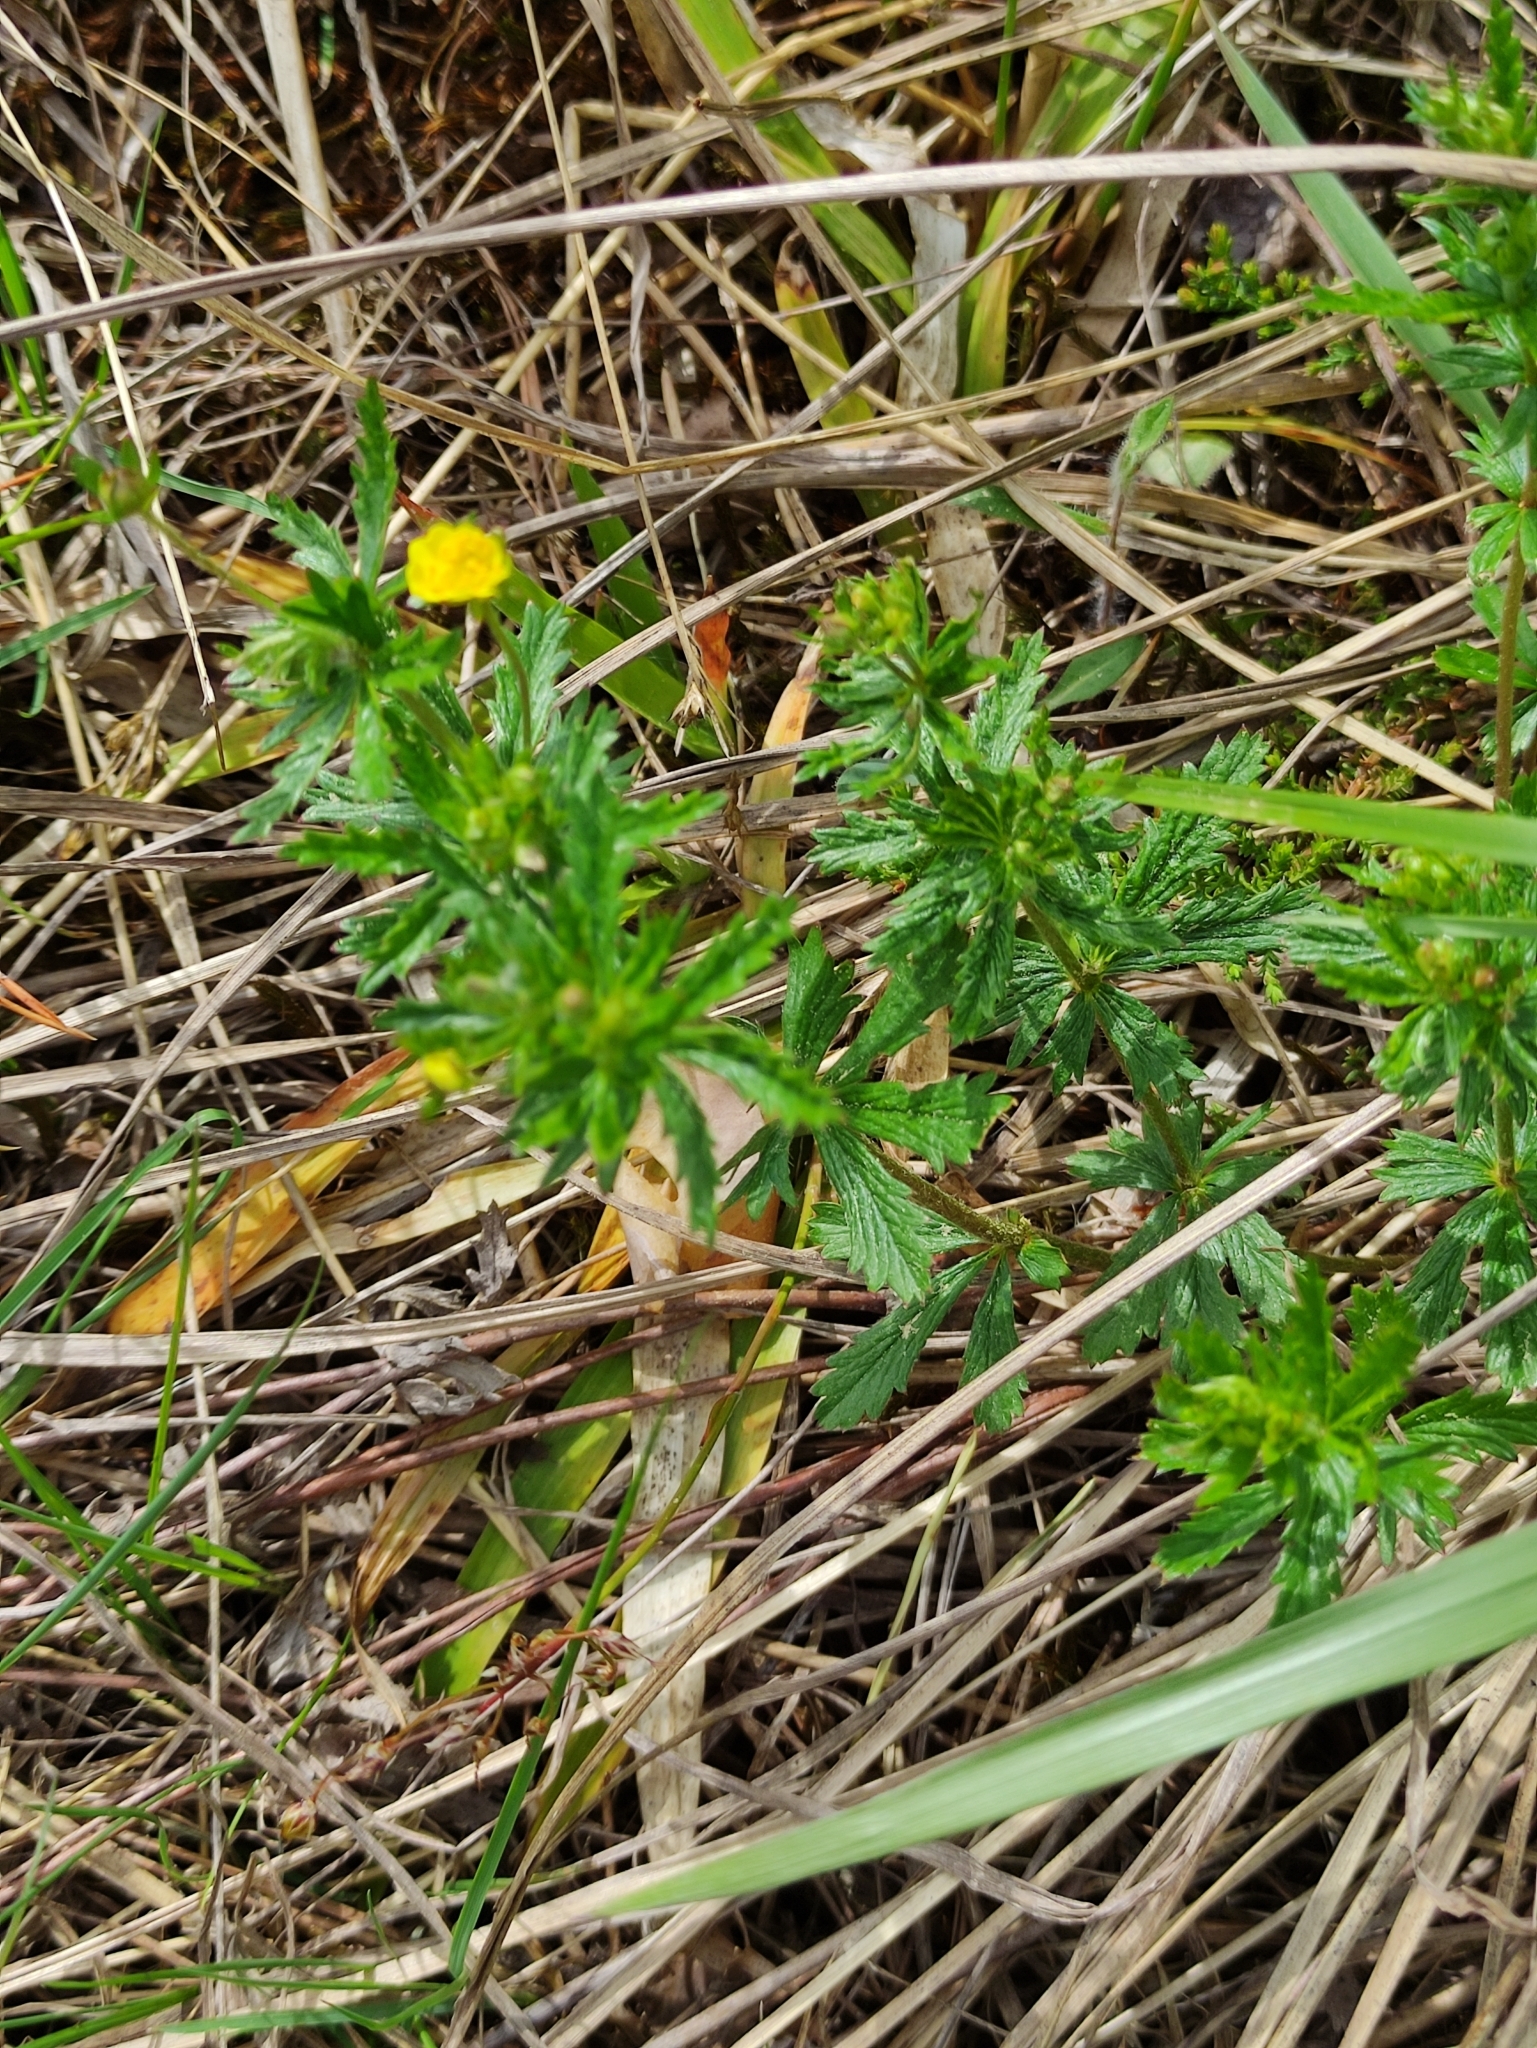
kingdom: Plantae
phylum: Tracheophyta
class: Magnoliopsida
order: Rosales
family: Rosaceae
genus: Potentilla
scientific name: Potentilla erecta
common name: Tormentil
